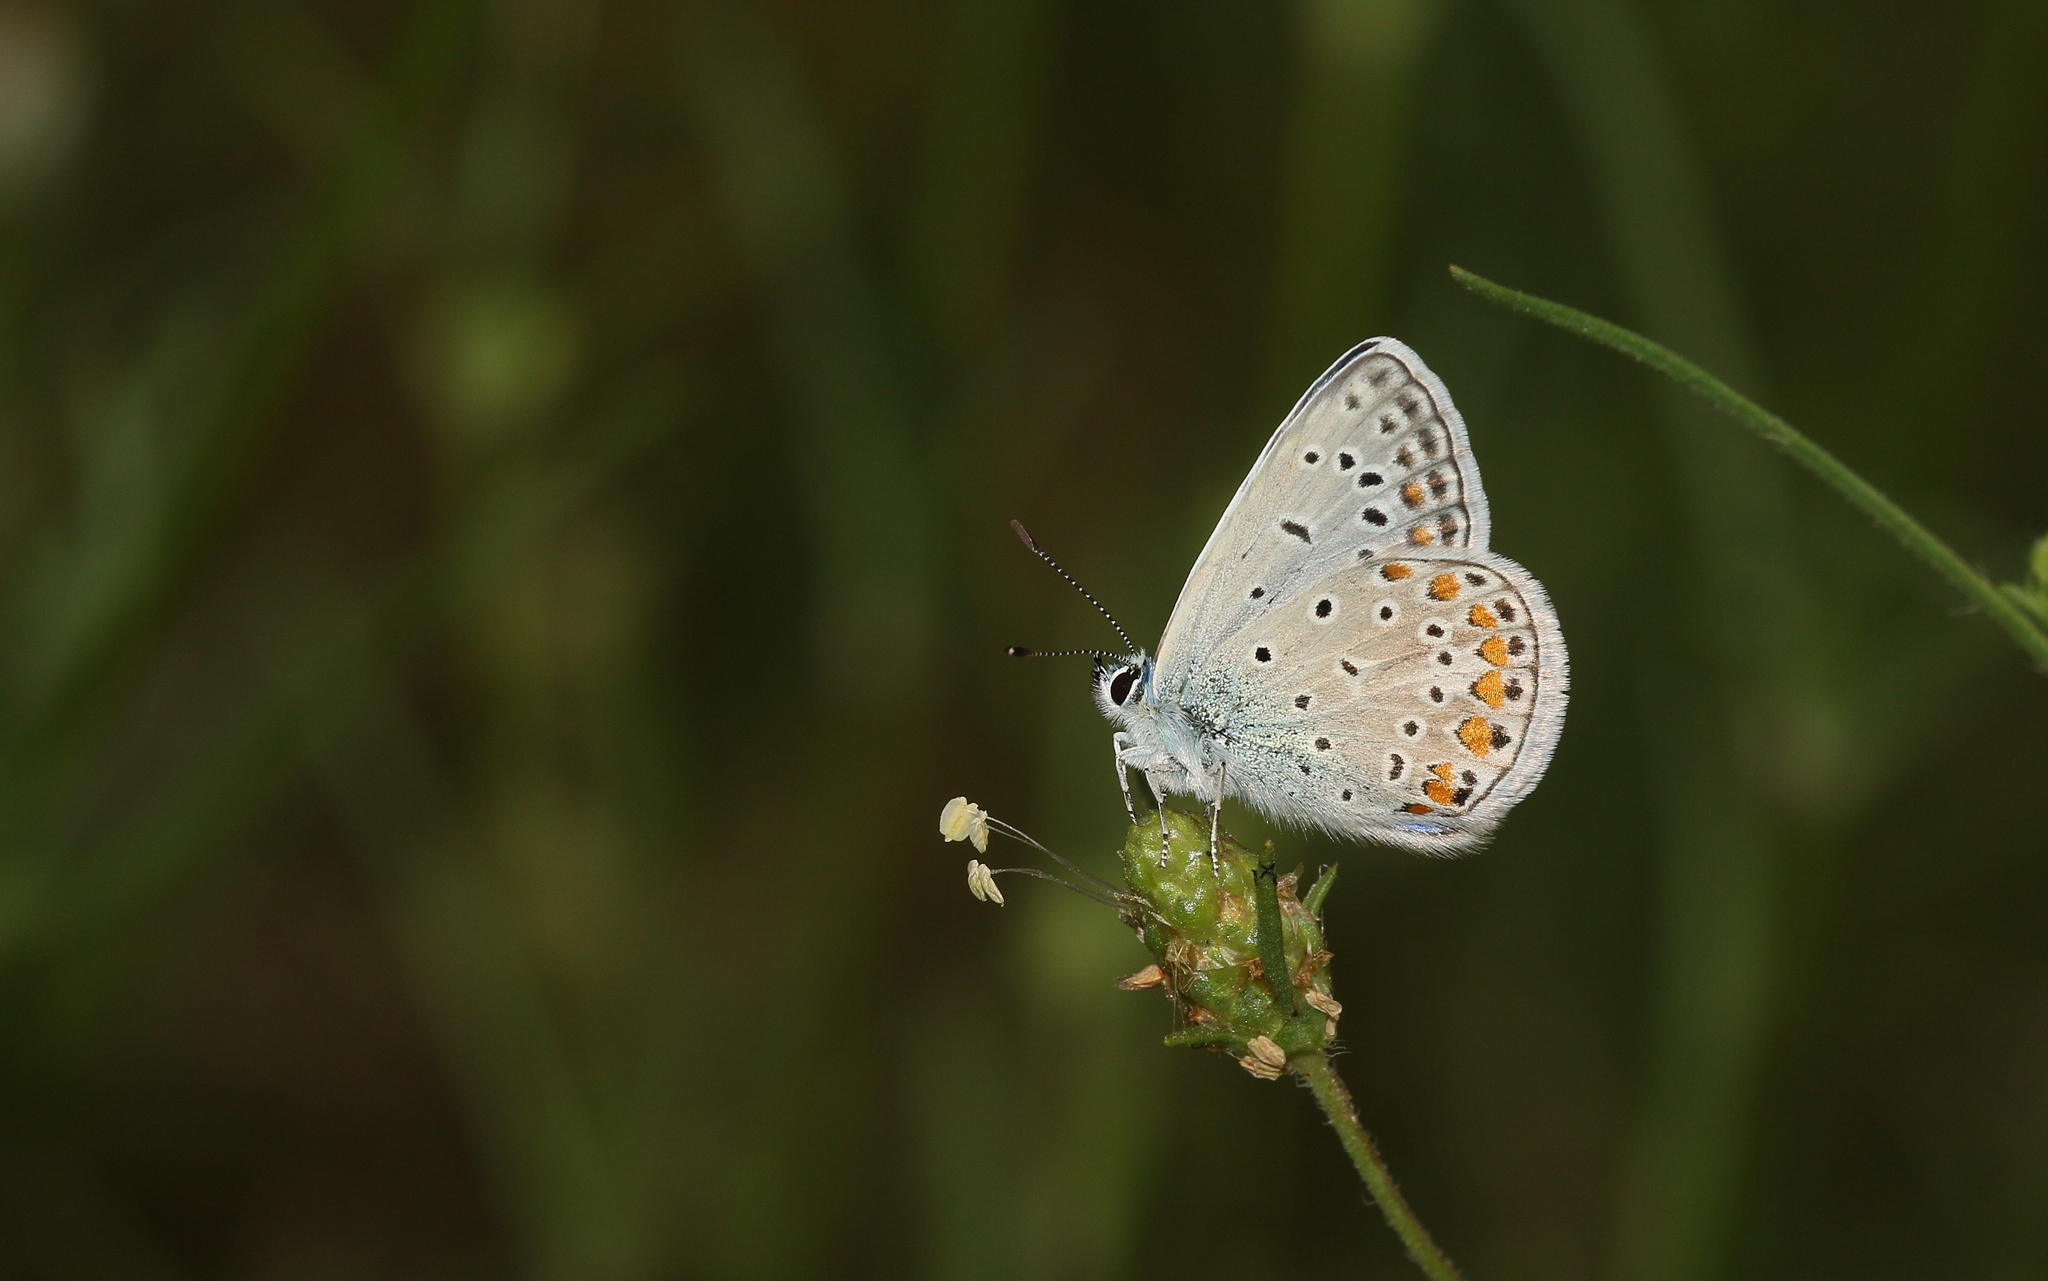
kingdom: Animalia
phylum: Arthropoda
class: Insecta
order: Lepidoptera
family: Lycaenidae
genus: Polyommatus
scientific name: Polyommatus icarus
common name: Common blue
